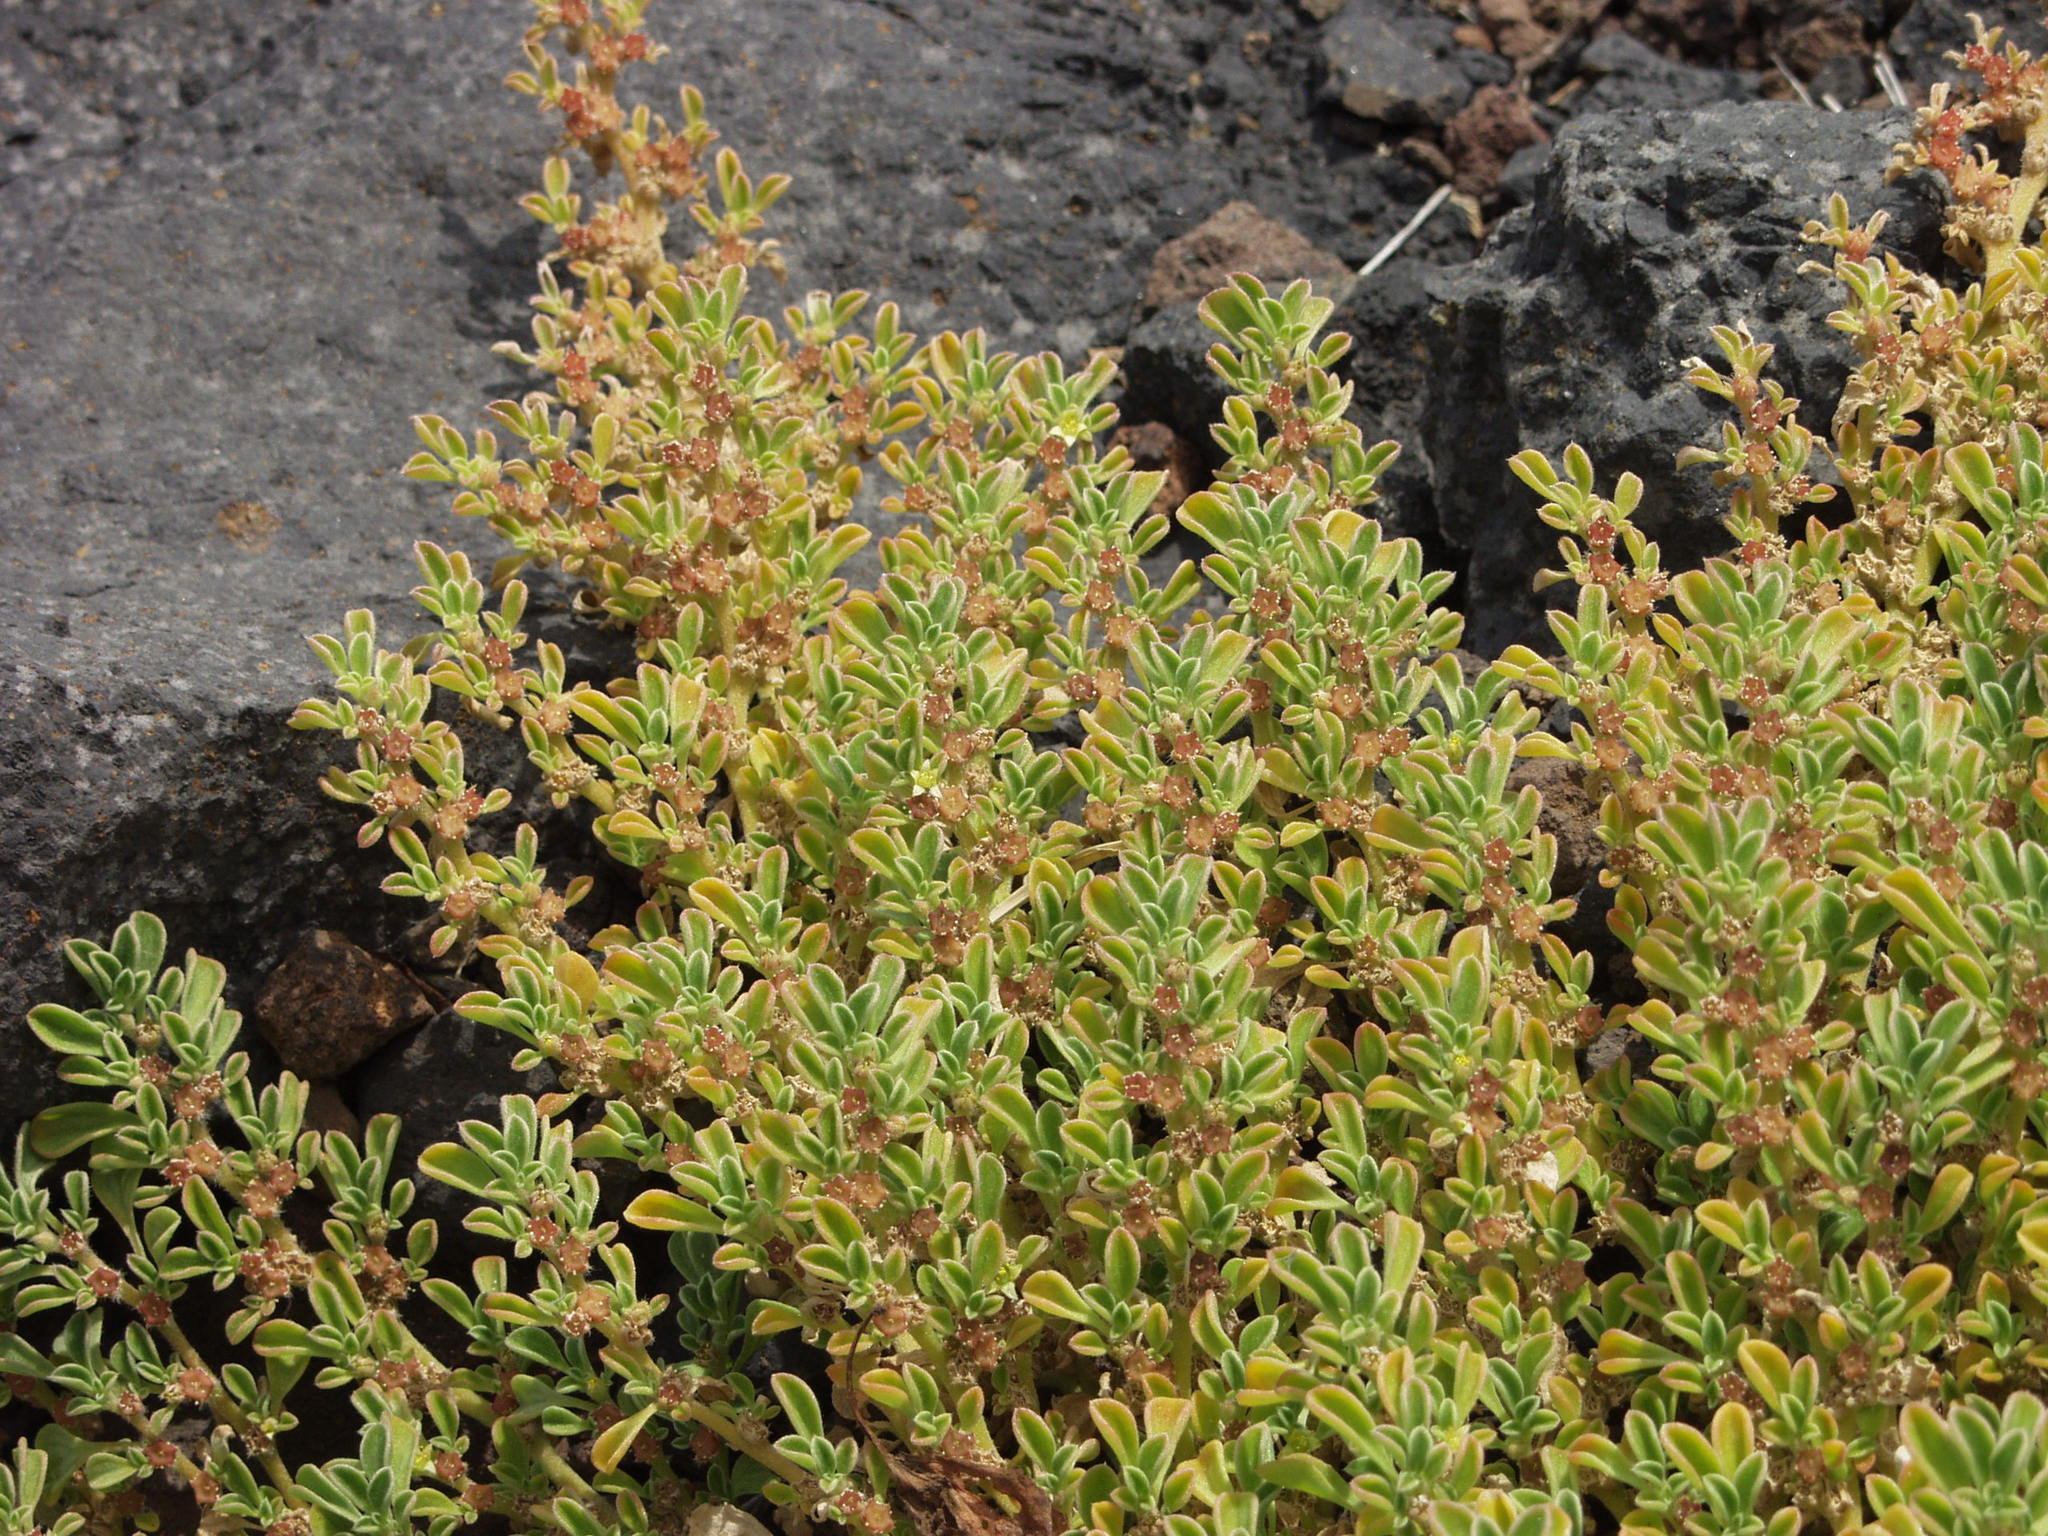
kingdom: Plantae
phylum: Tracheophyta
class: Magnoliopsida
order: Caryophyllales
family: Aizoaceae
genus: Aizoon
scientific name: Aizoon canariense
